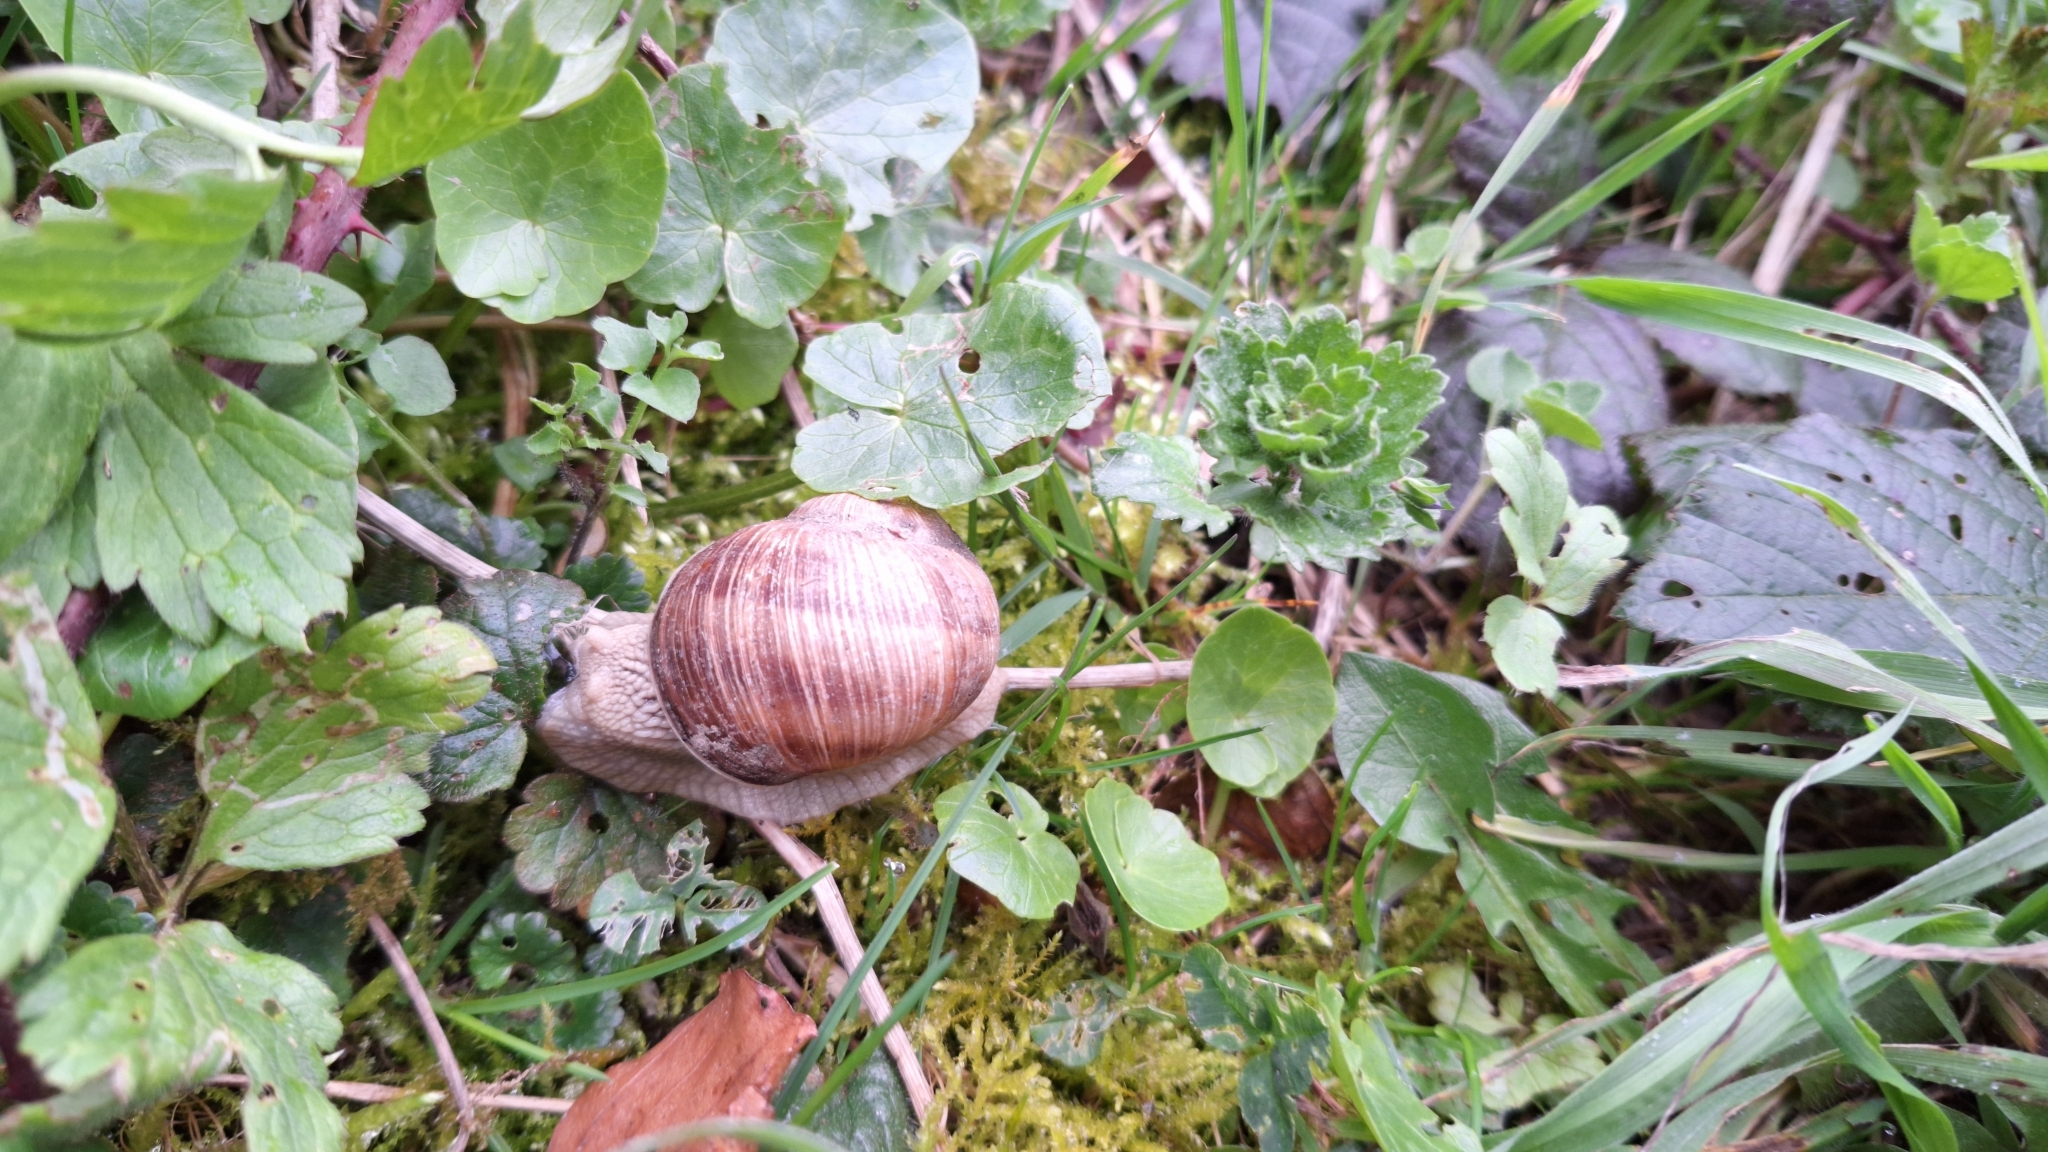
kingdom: Animalia
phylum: Mollusca
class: Gastropoda
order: Stylommatophora
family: Helicidae
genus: Helix
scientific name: Helix pomatia
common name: Roman snail
